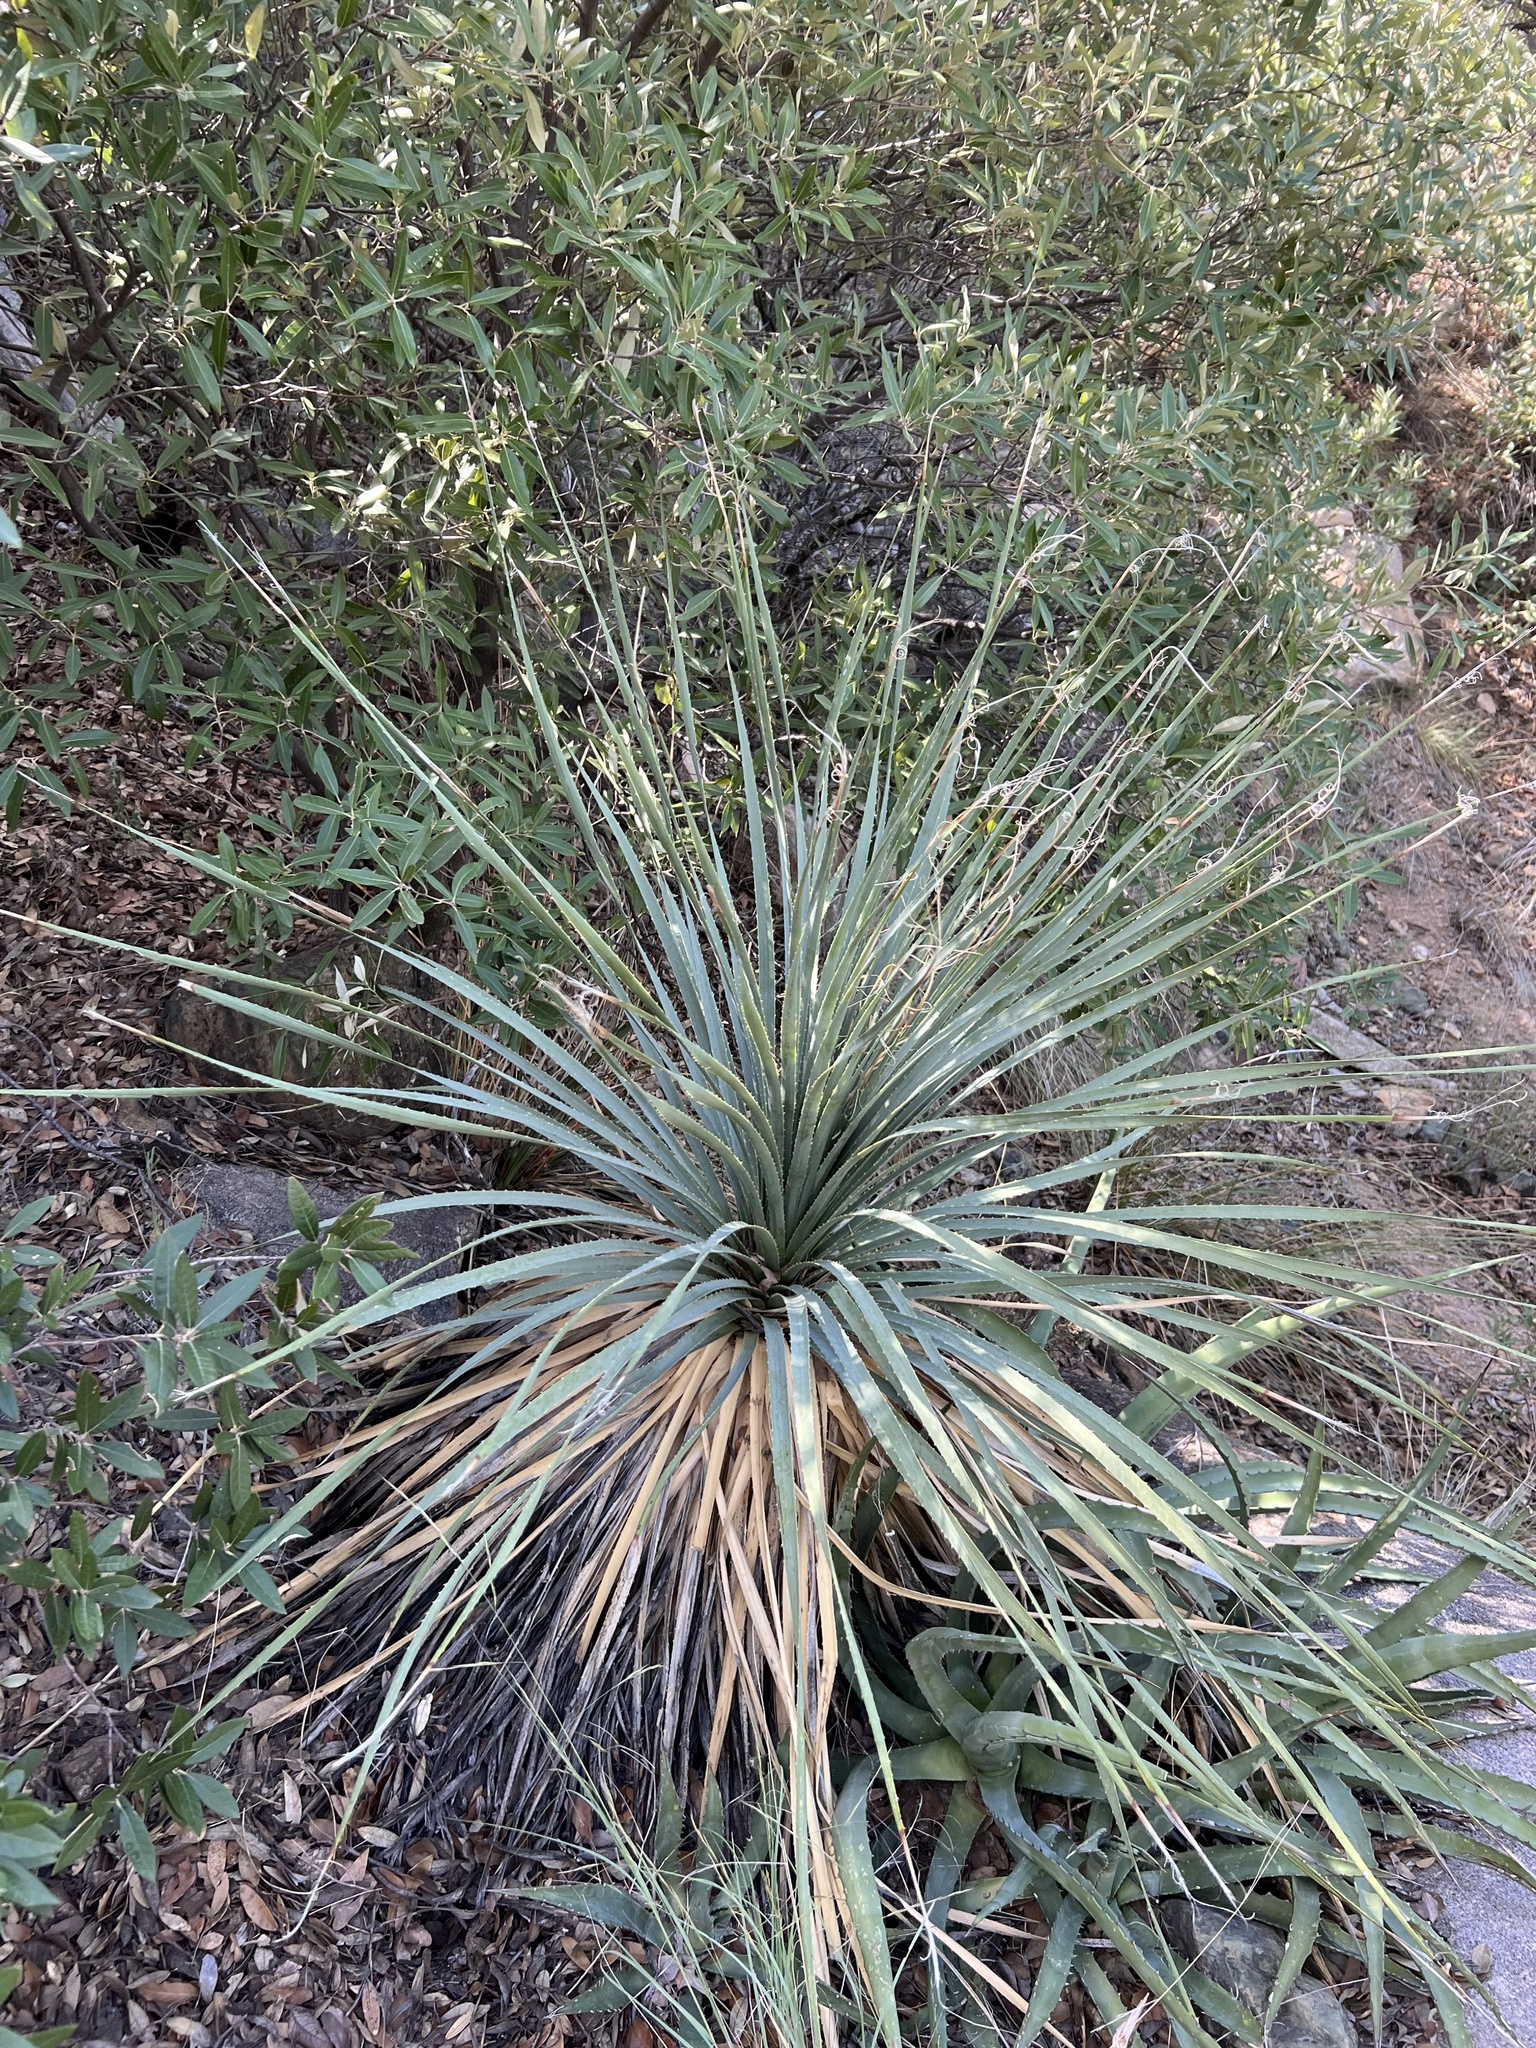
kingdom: Plantae
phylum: Tracheophyta
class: Liliopsida
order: Asparagales
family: Asparagaceae
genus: Dasylirion
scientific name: Dasylirion wheeleri
